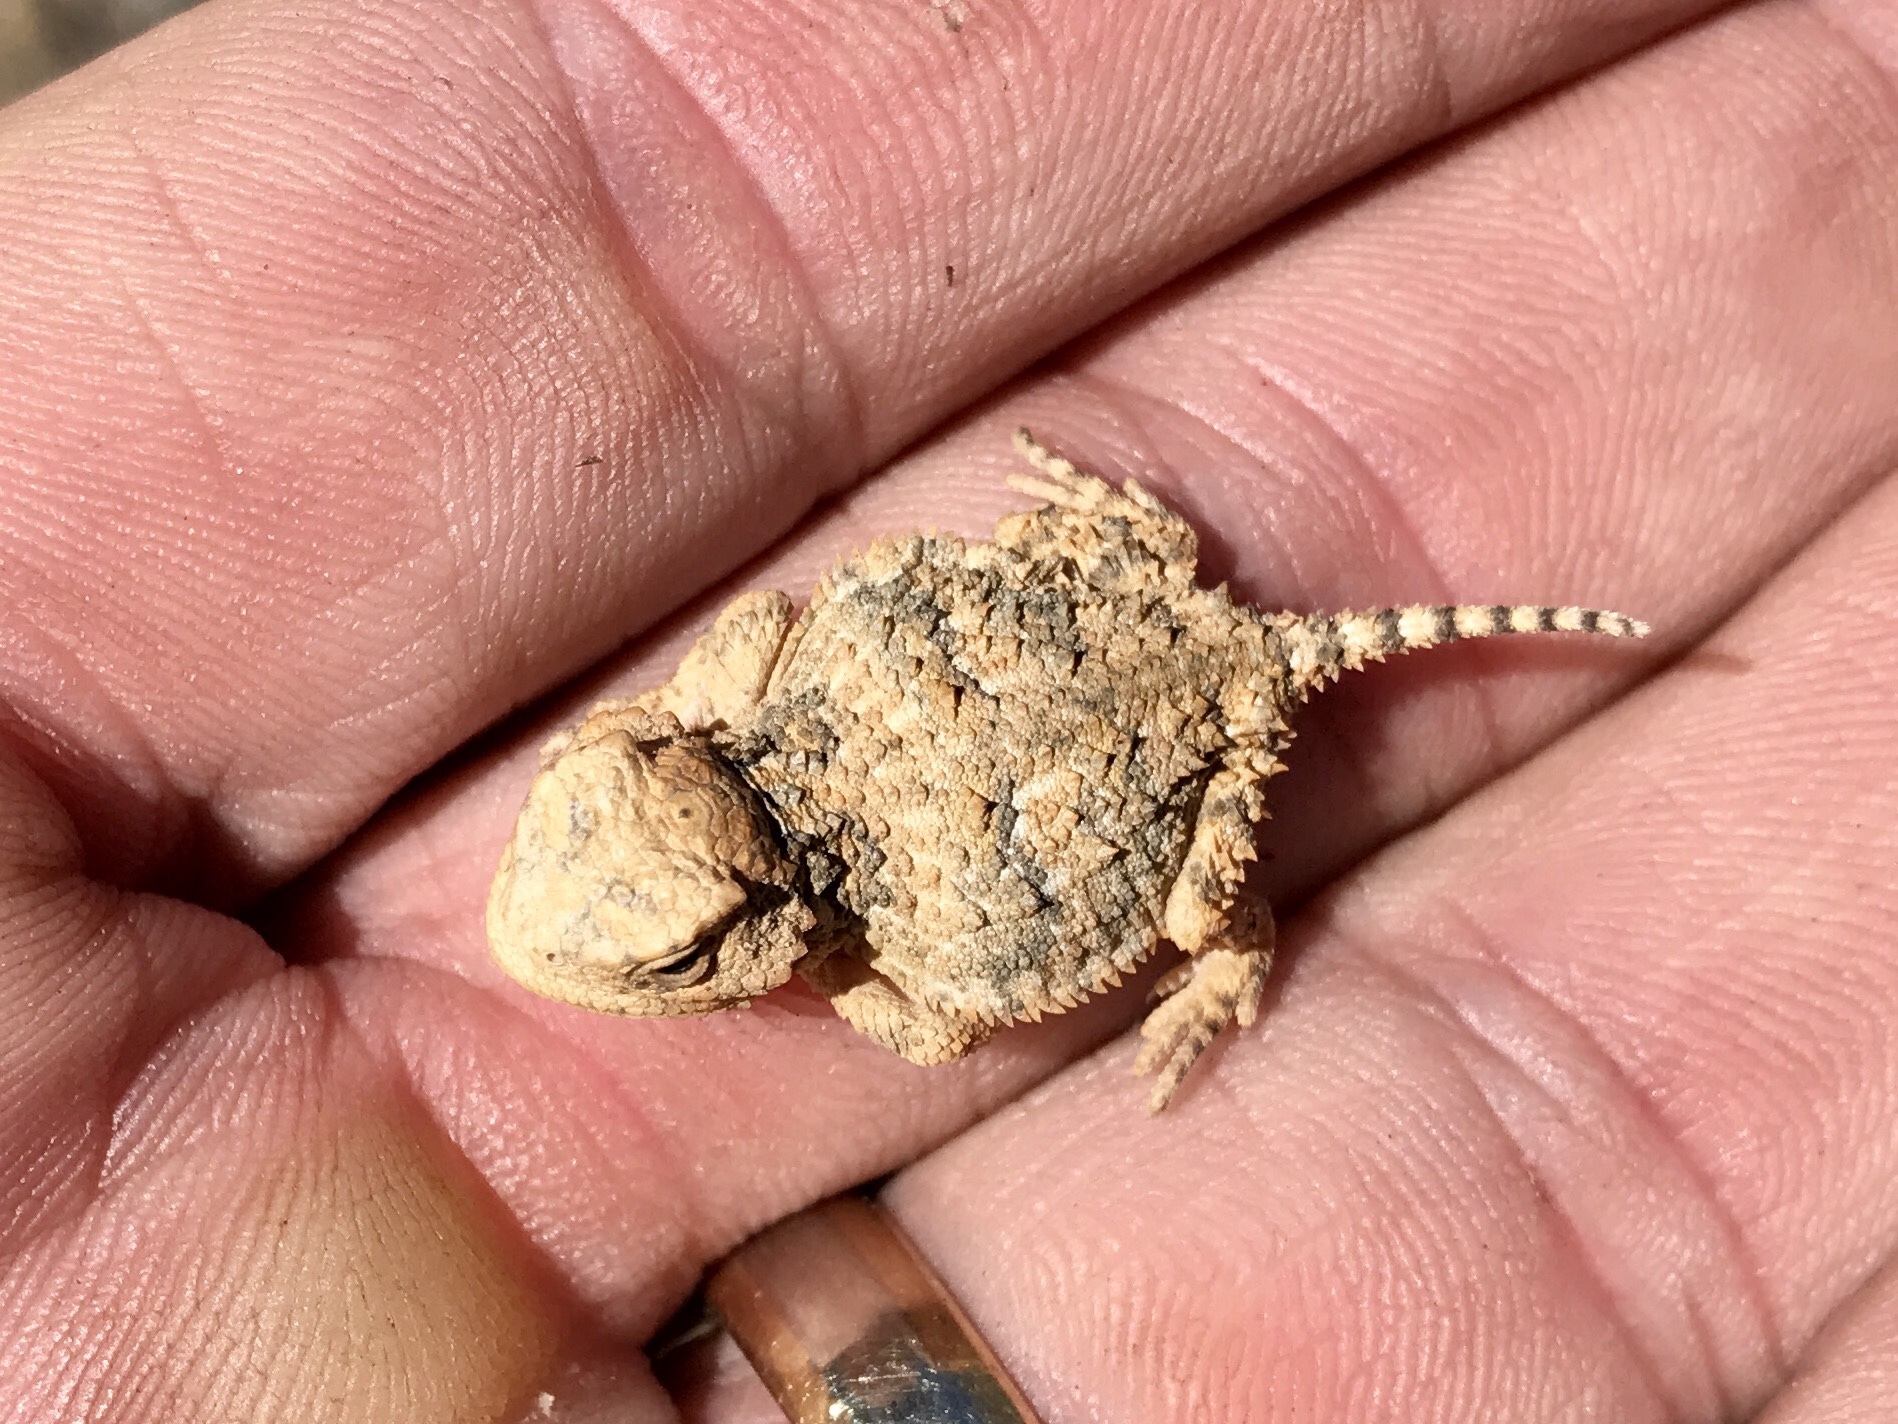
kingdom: Animalia
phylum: Chordata
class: Squamata
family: Phrynosomatidae
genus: Phrynosoma
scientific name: Phrynosoma hernandesi
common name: Greater short-horned lizard
